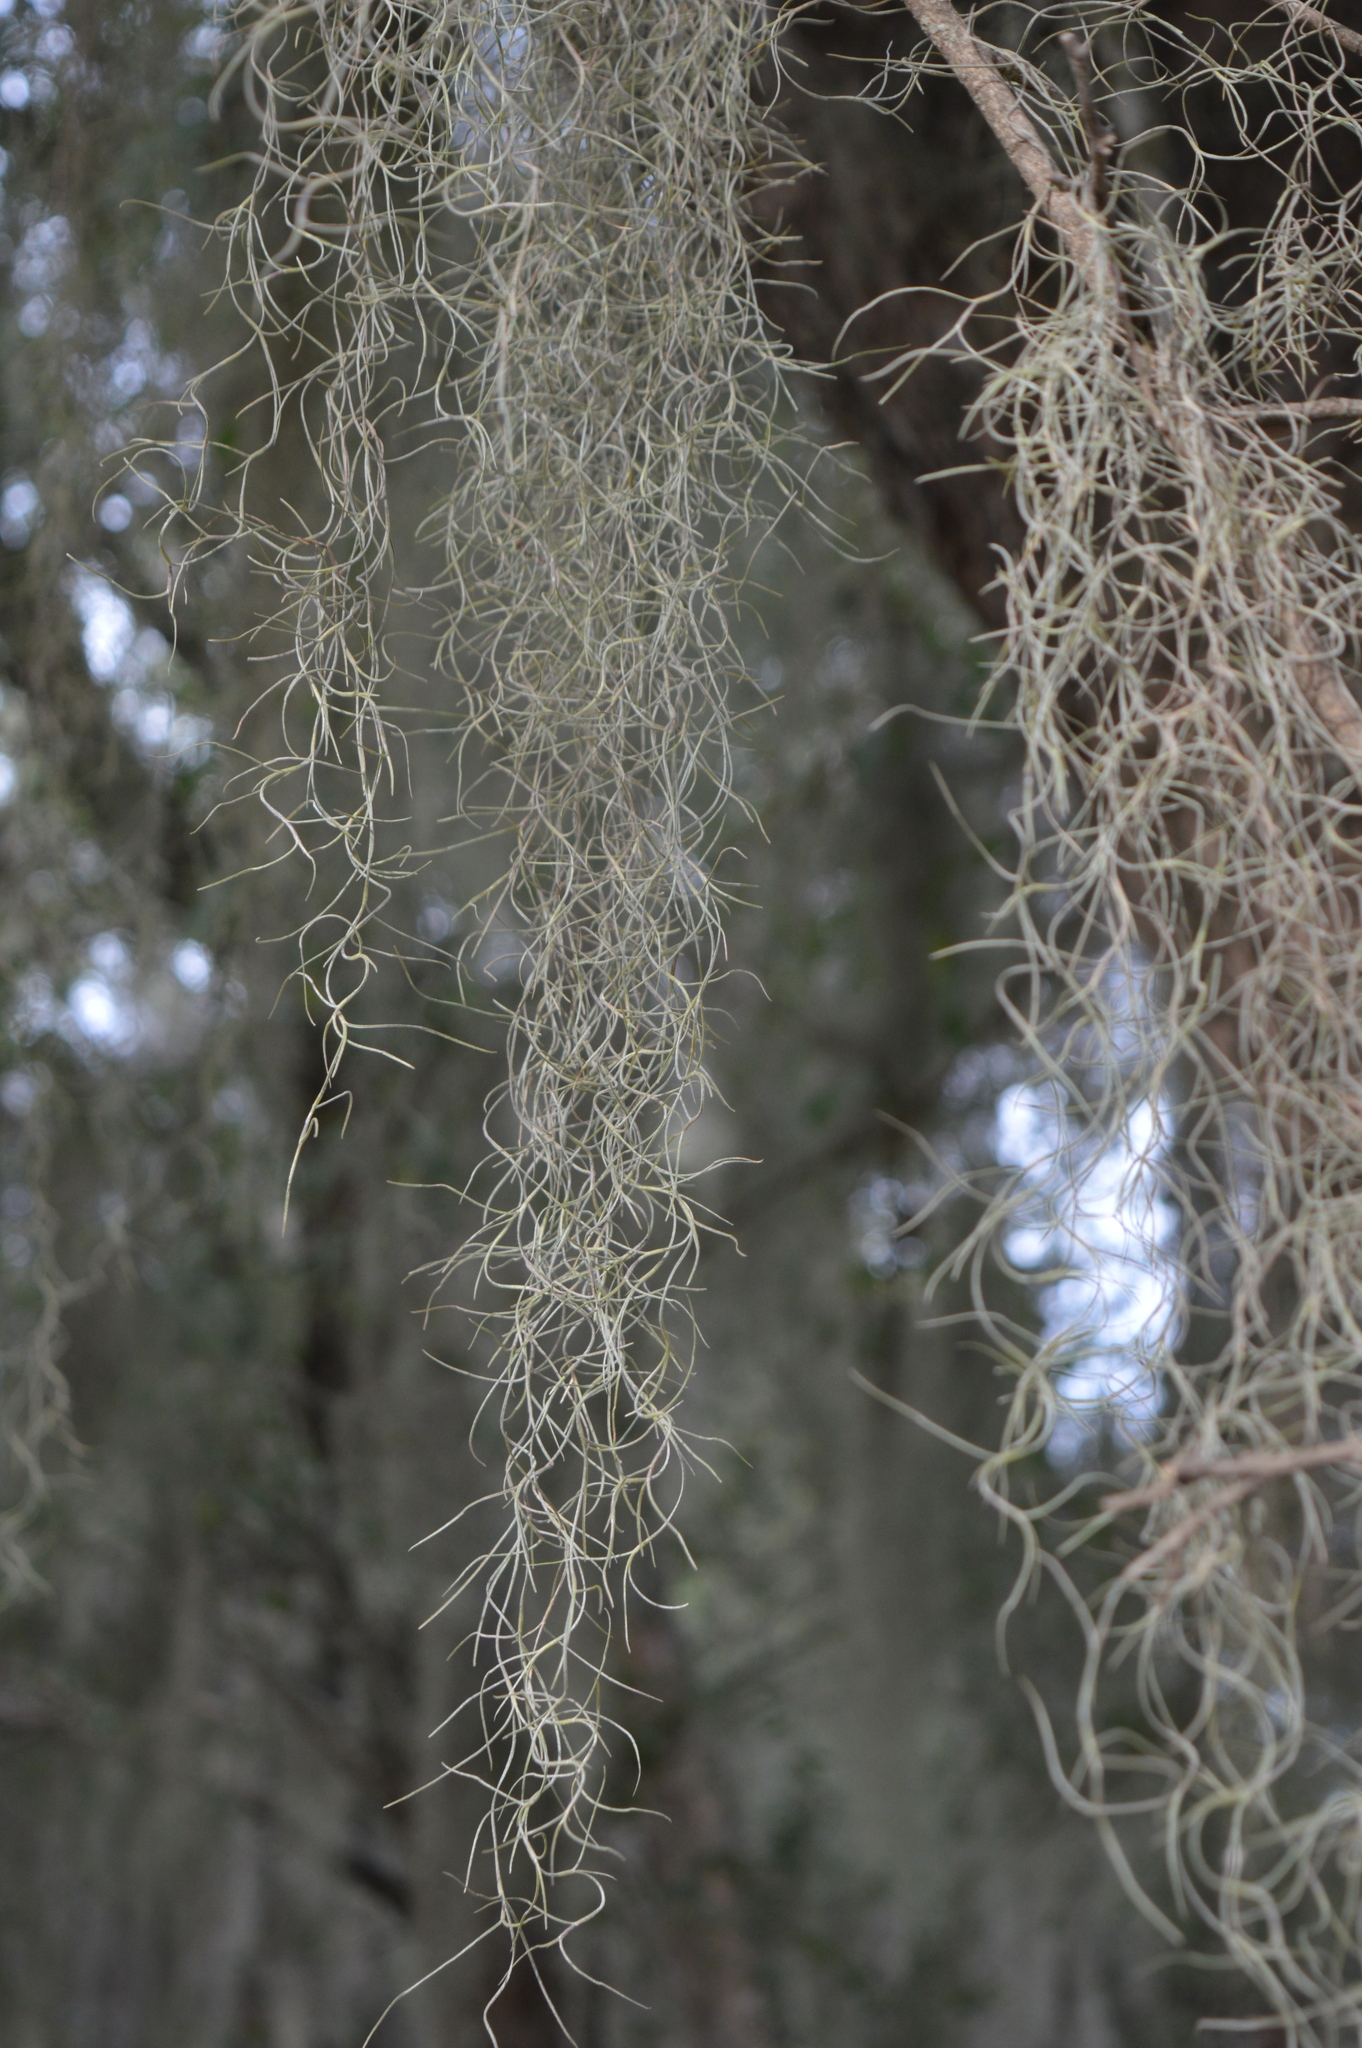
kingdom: Plantae
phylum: Tracheophyta
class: Liliopsida
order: Poales
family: Bromeliaceae
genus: Tillandsia
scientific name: Tillandsia usneoides
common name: Spanish moss
